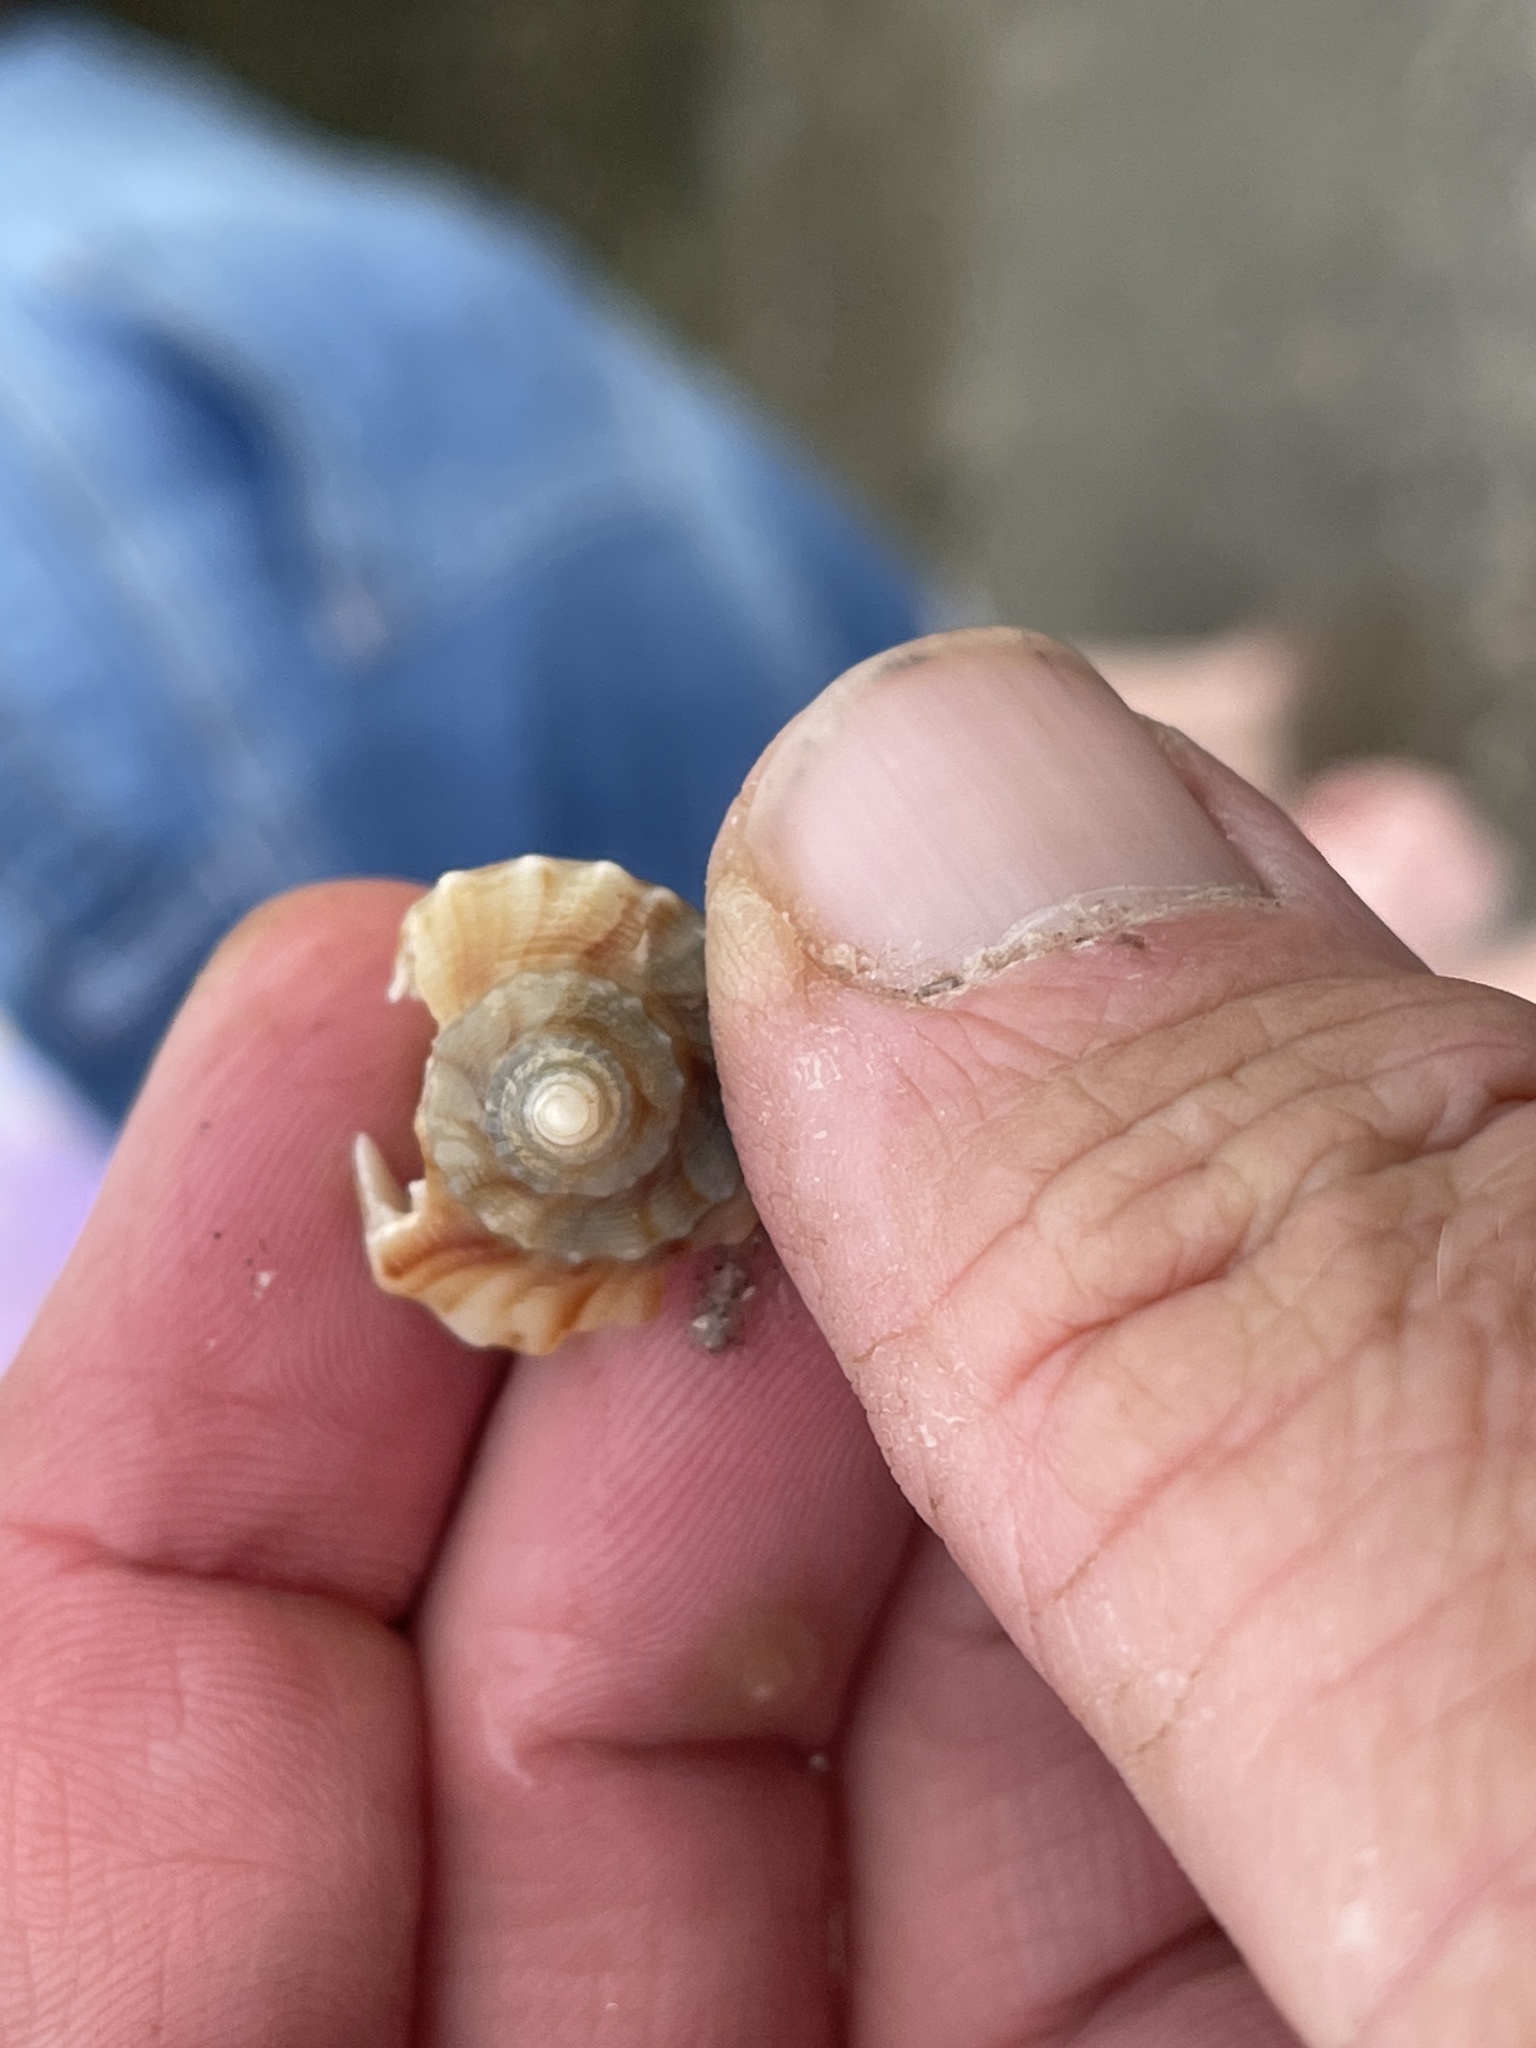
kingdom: Animalia
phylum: Mollusca
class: Gastropoda
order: Neogastropoda
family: Busyconidae
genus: Sinistrofulgur
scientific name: Sinistrofulgur pulleyi
